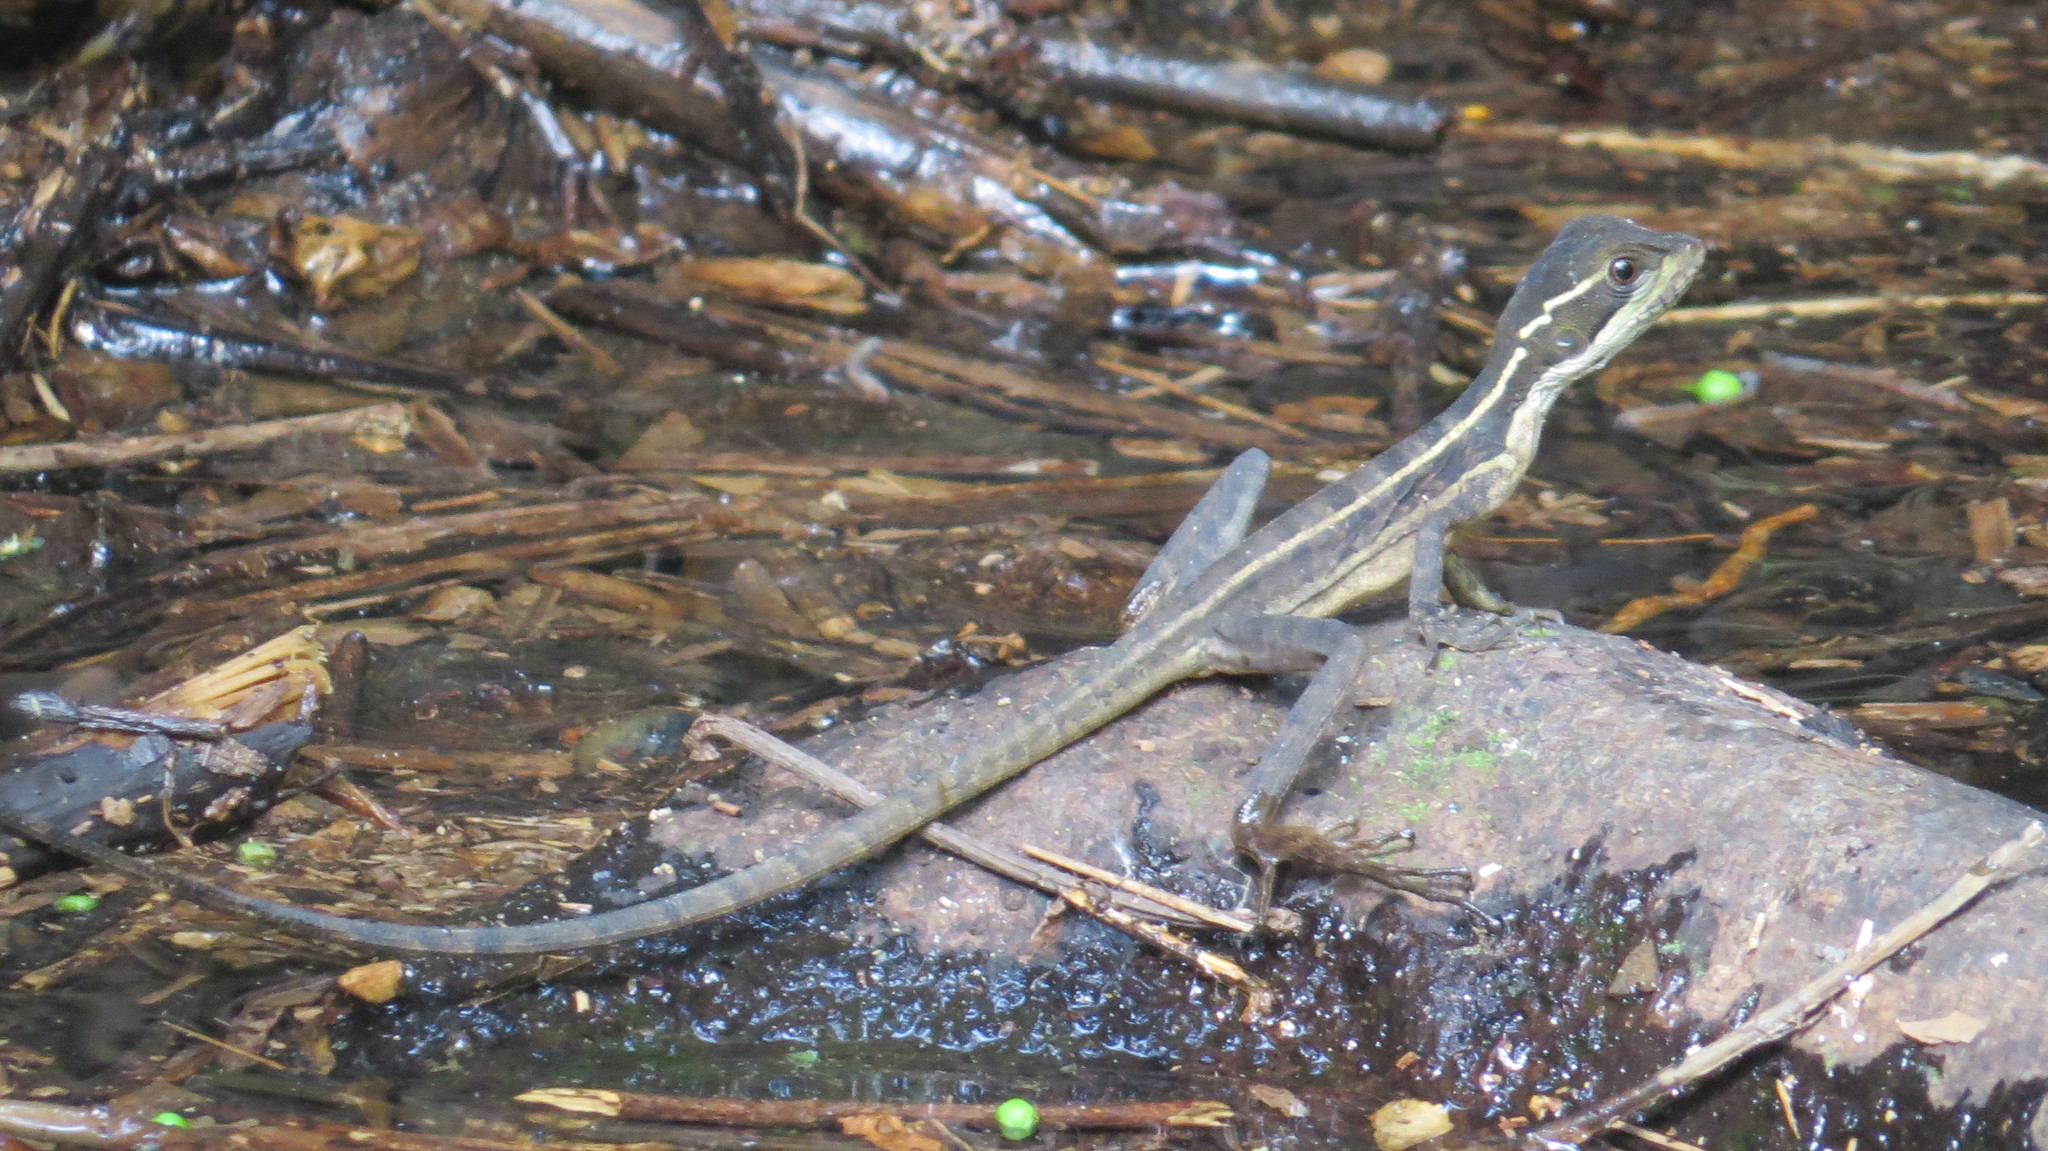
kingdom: Animalia
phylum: Chordata
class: Squamata
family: Corytophanidae
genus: Basiliscus
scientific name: Basiliscus vittatus
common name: Brown basilisk
